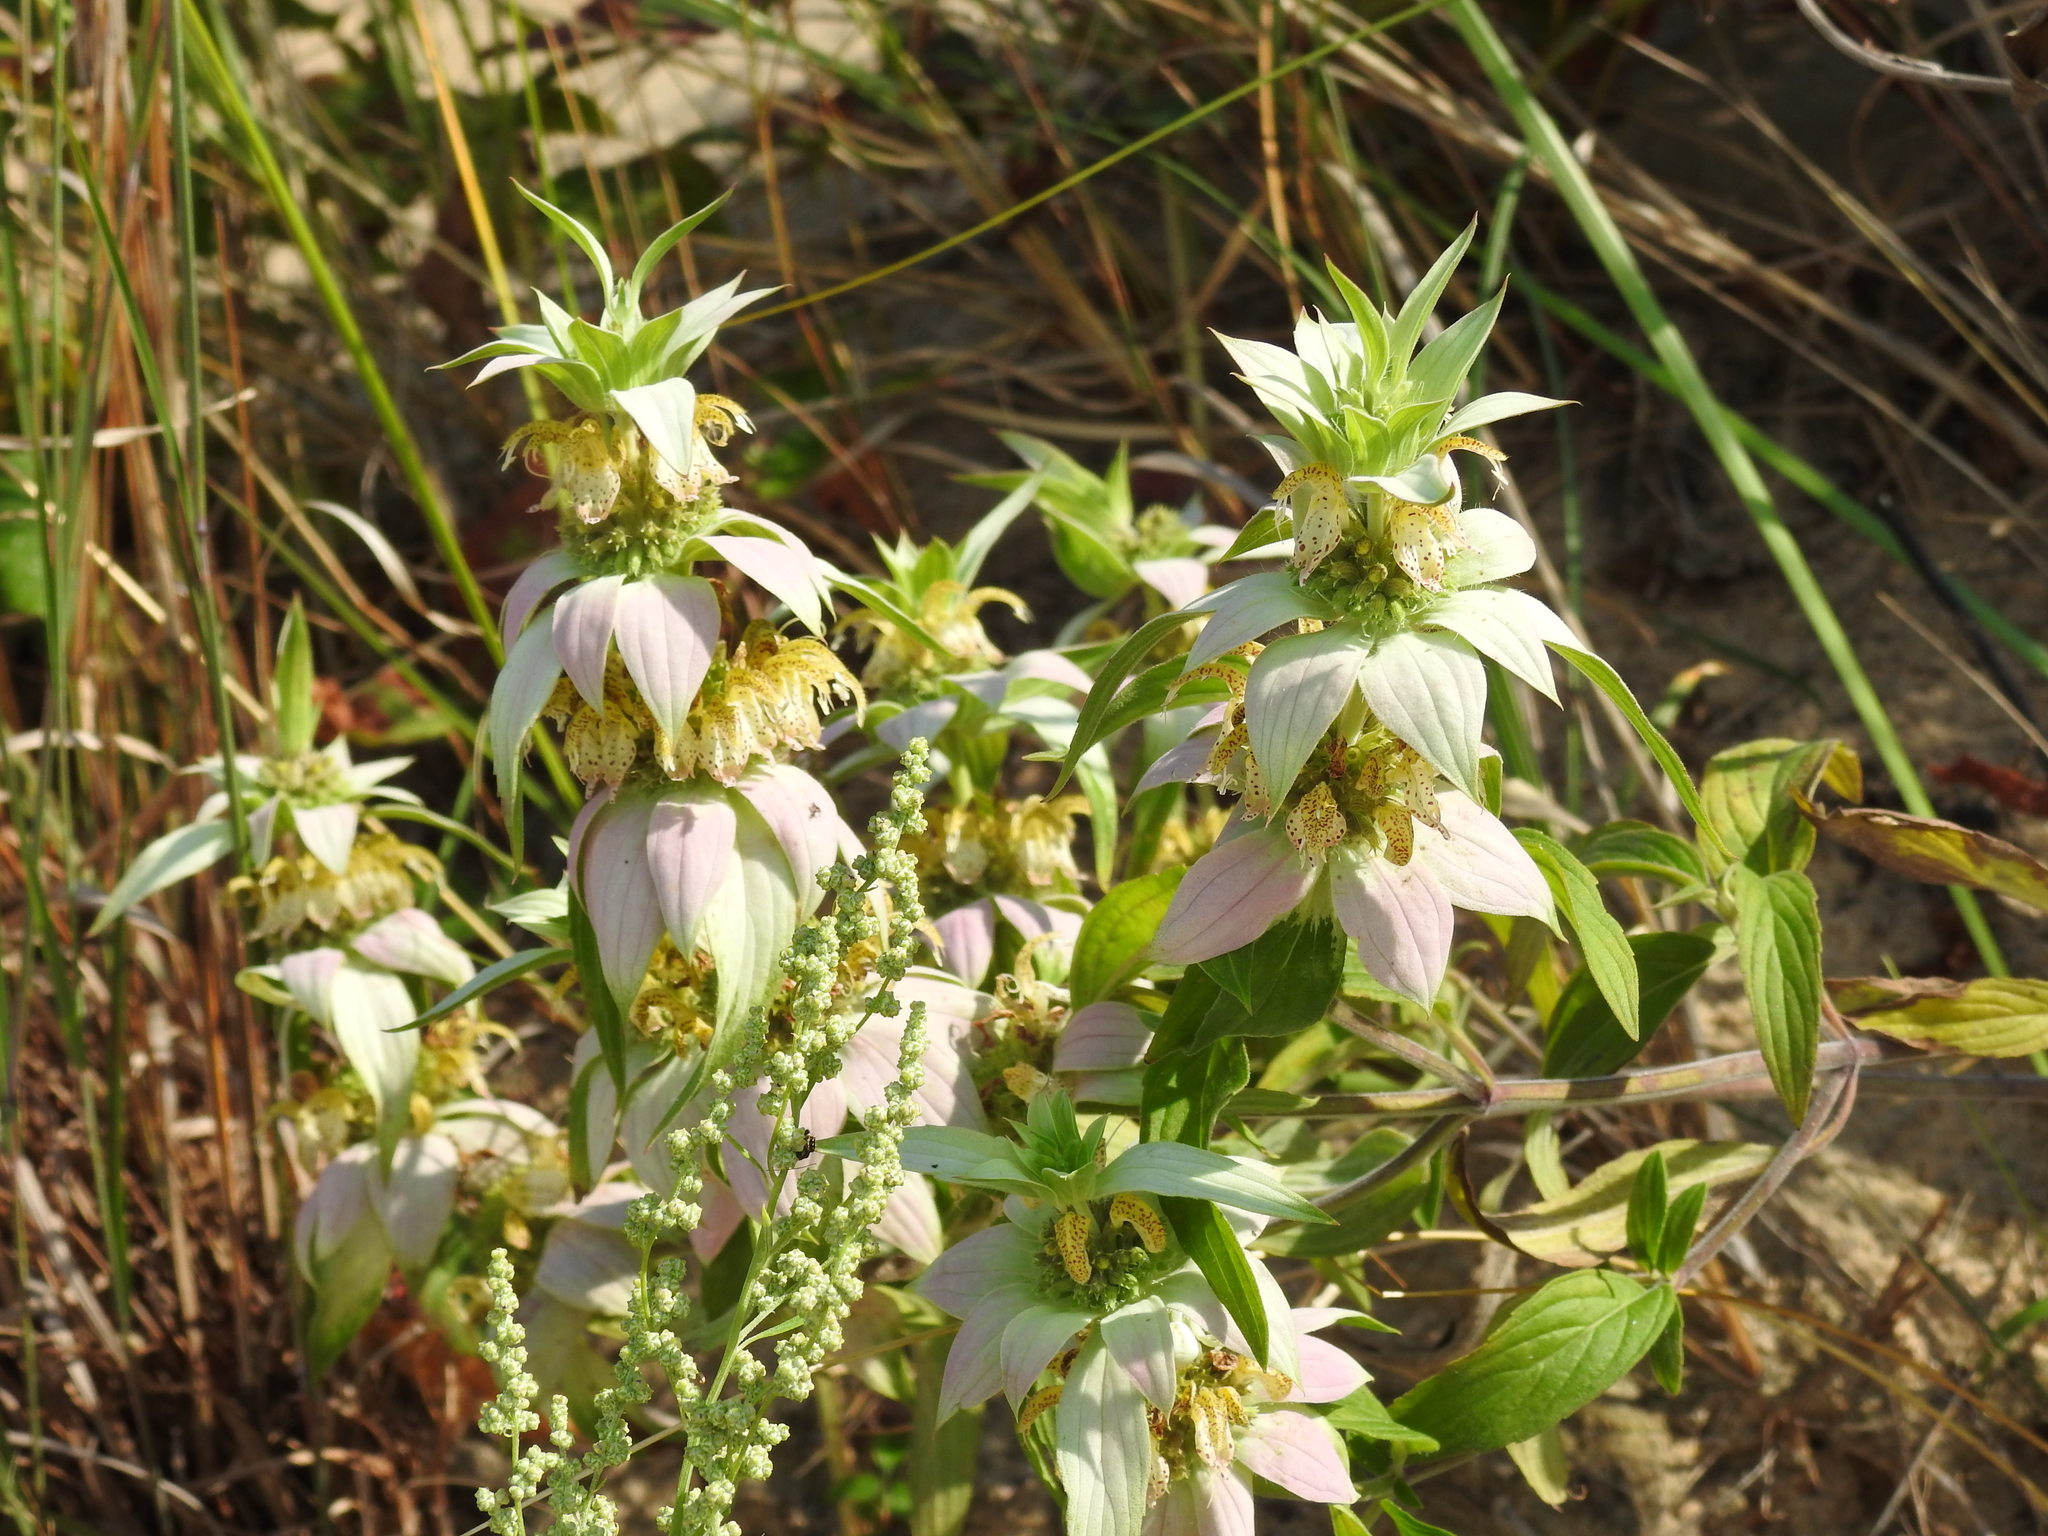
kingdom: Plantae
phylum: Tracheophyta
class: Magnoliopsida
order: Lamiales
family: Lamiaceae
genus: Monarda
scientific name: Monarda punctata
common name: Dotted monarda
